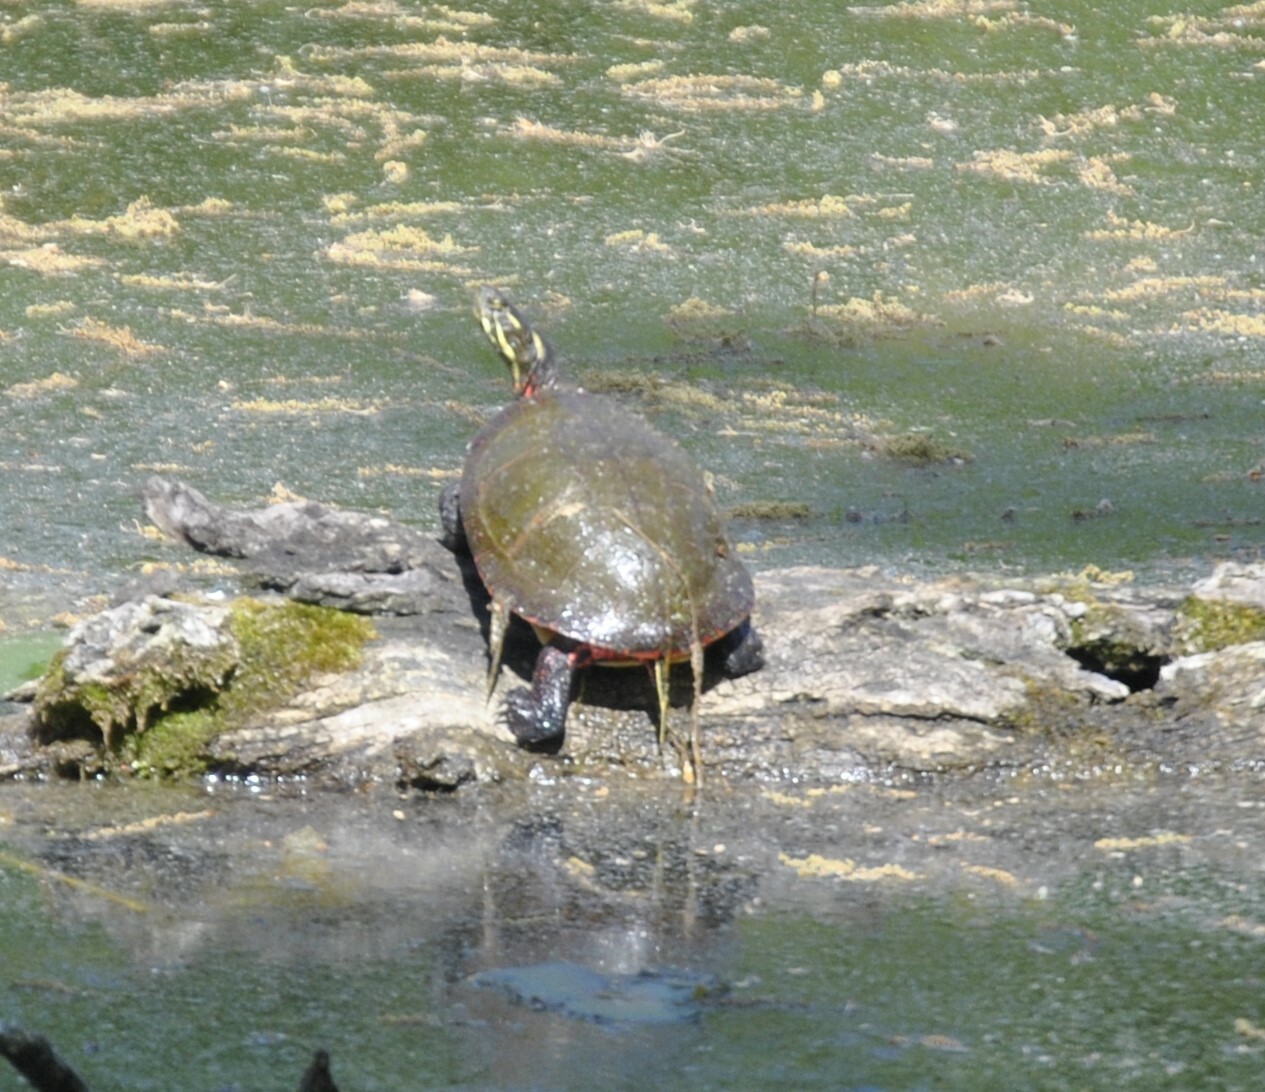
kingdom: Animalia
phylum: Chordata
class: Testudines
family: Emydidae
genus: Chrysemys
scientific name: Chrysemys picta
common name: Painted turtle
